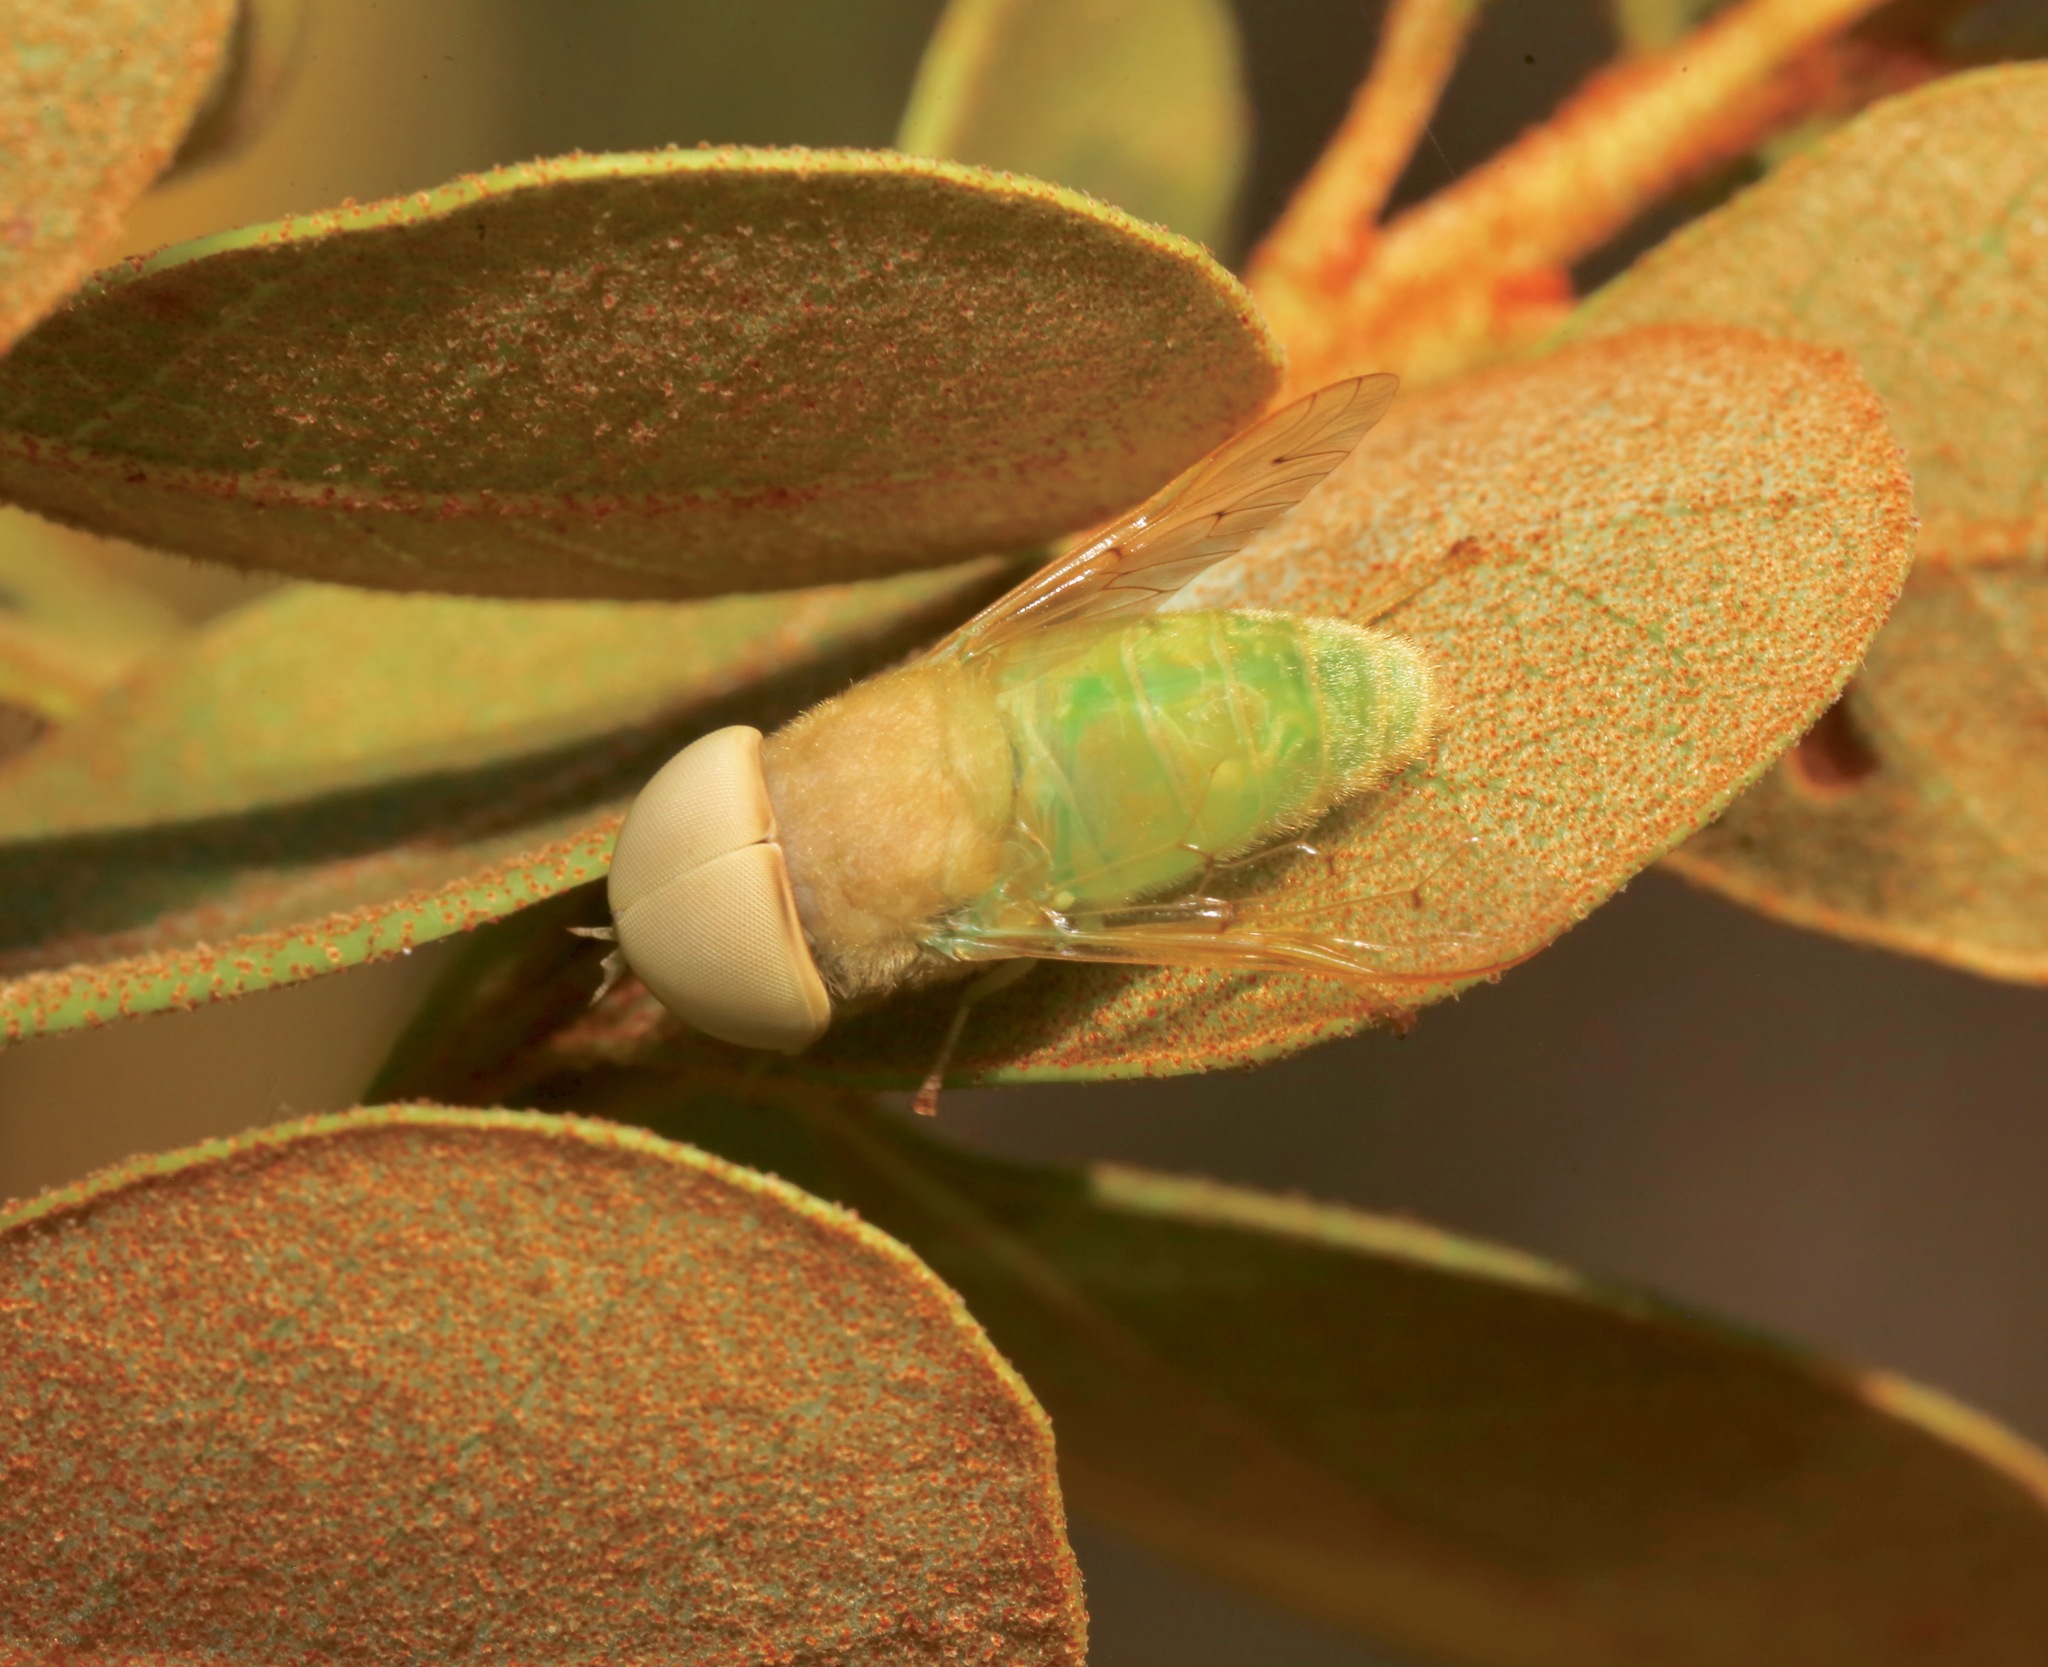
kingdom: Animalia
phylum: Arthropoda
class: Insecta
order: Diptera
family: Tabanidae
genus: Chlorotabanus
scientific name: Chlorotabanus crepuscularis
